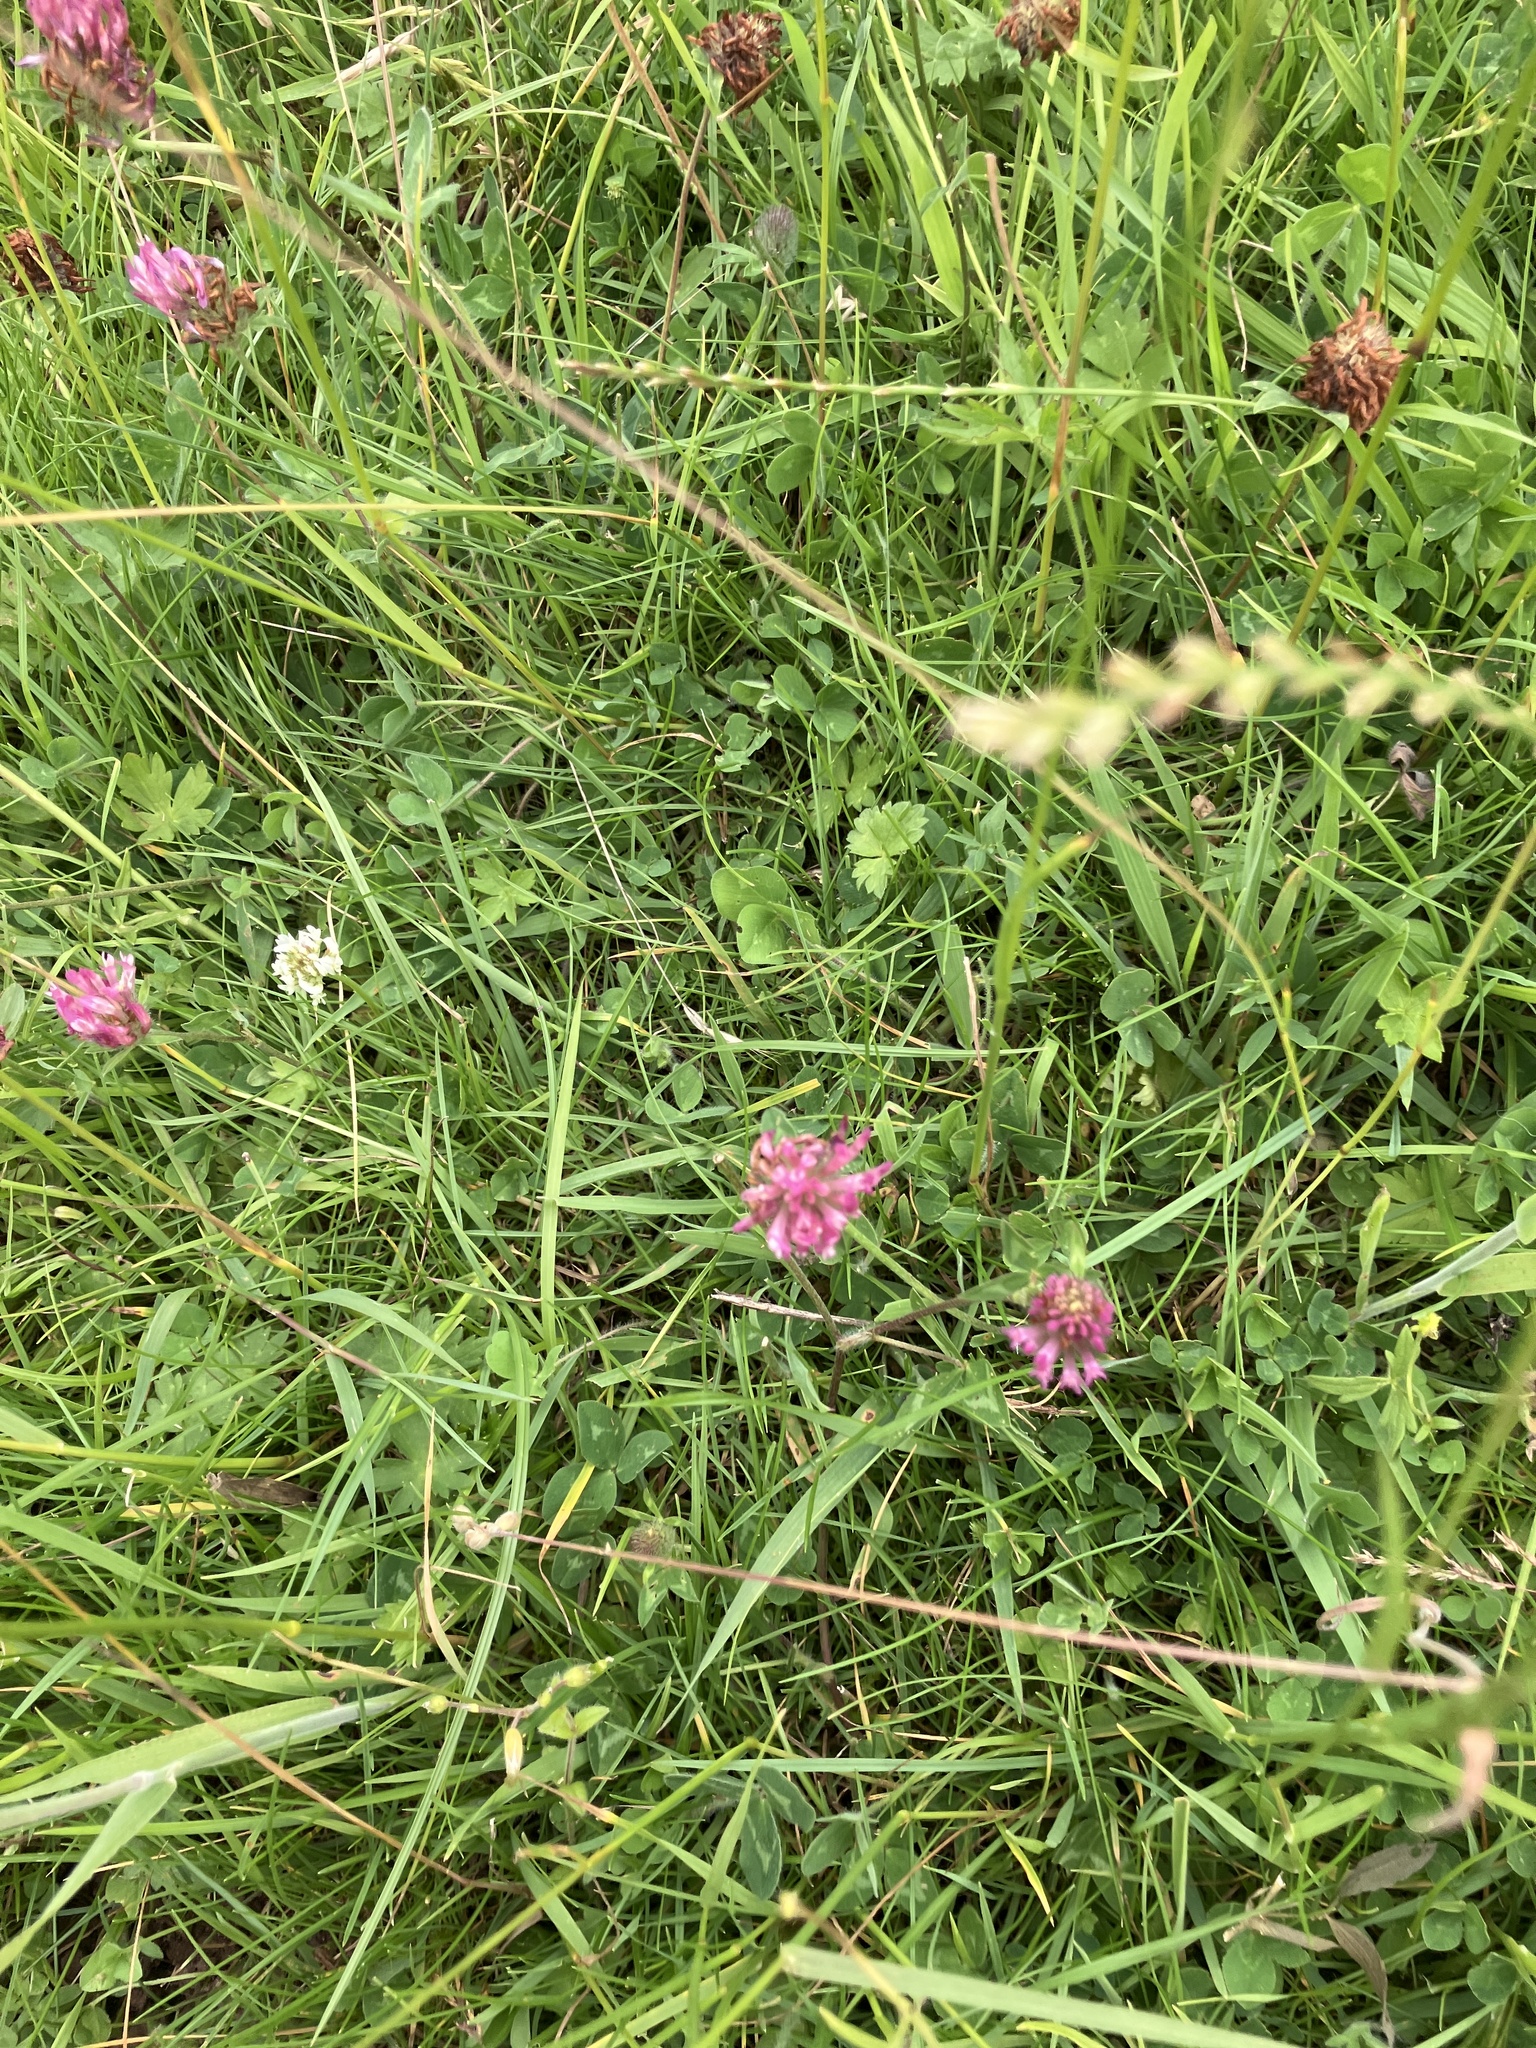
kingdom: Plantae
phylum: Tracheophyta
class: Magnoliopsida
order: Fabales
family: Fabaceae
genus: Trifolium
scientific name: Trifolium pratense
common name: Red clover
